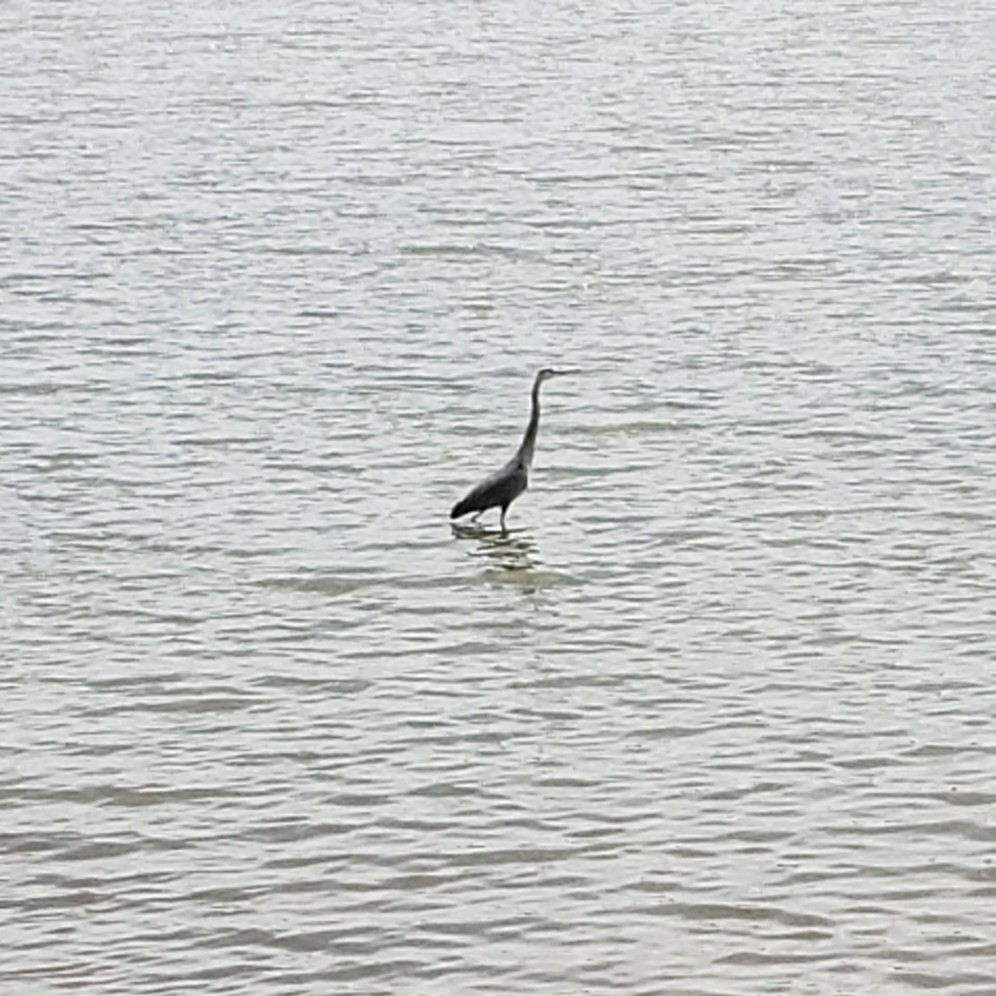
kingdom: Animalia
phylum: Chordata
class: Aves
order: Pelecaniformes
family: Ardeidae
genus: Ardea
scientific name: Ardea herodias
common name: Great blue heron
